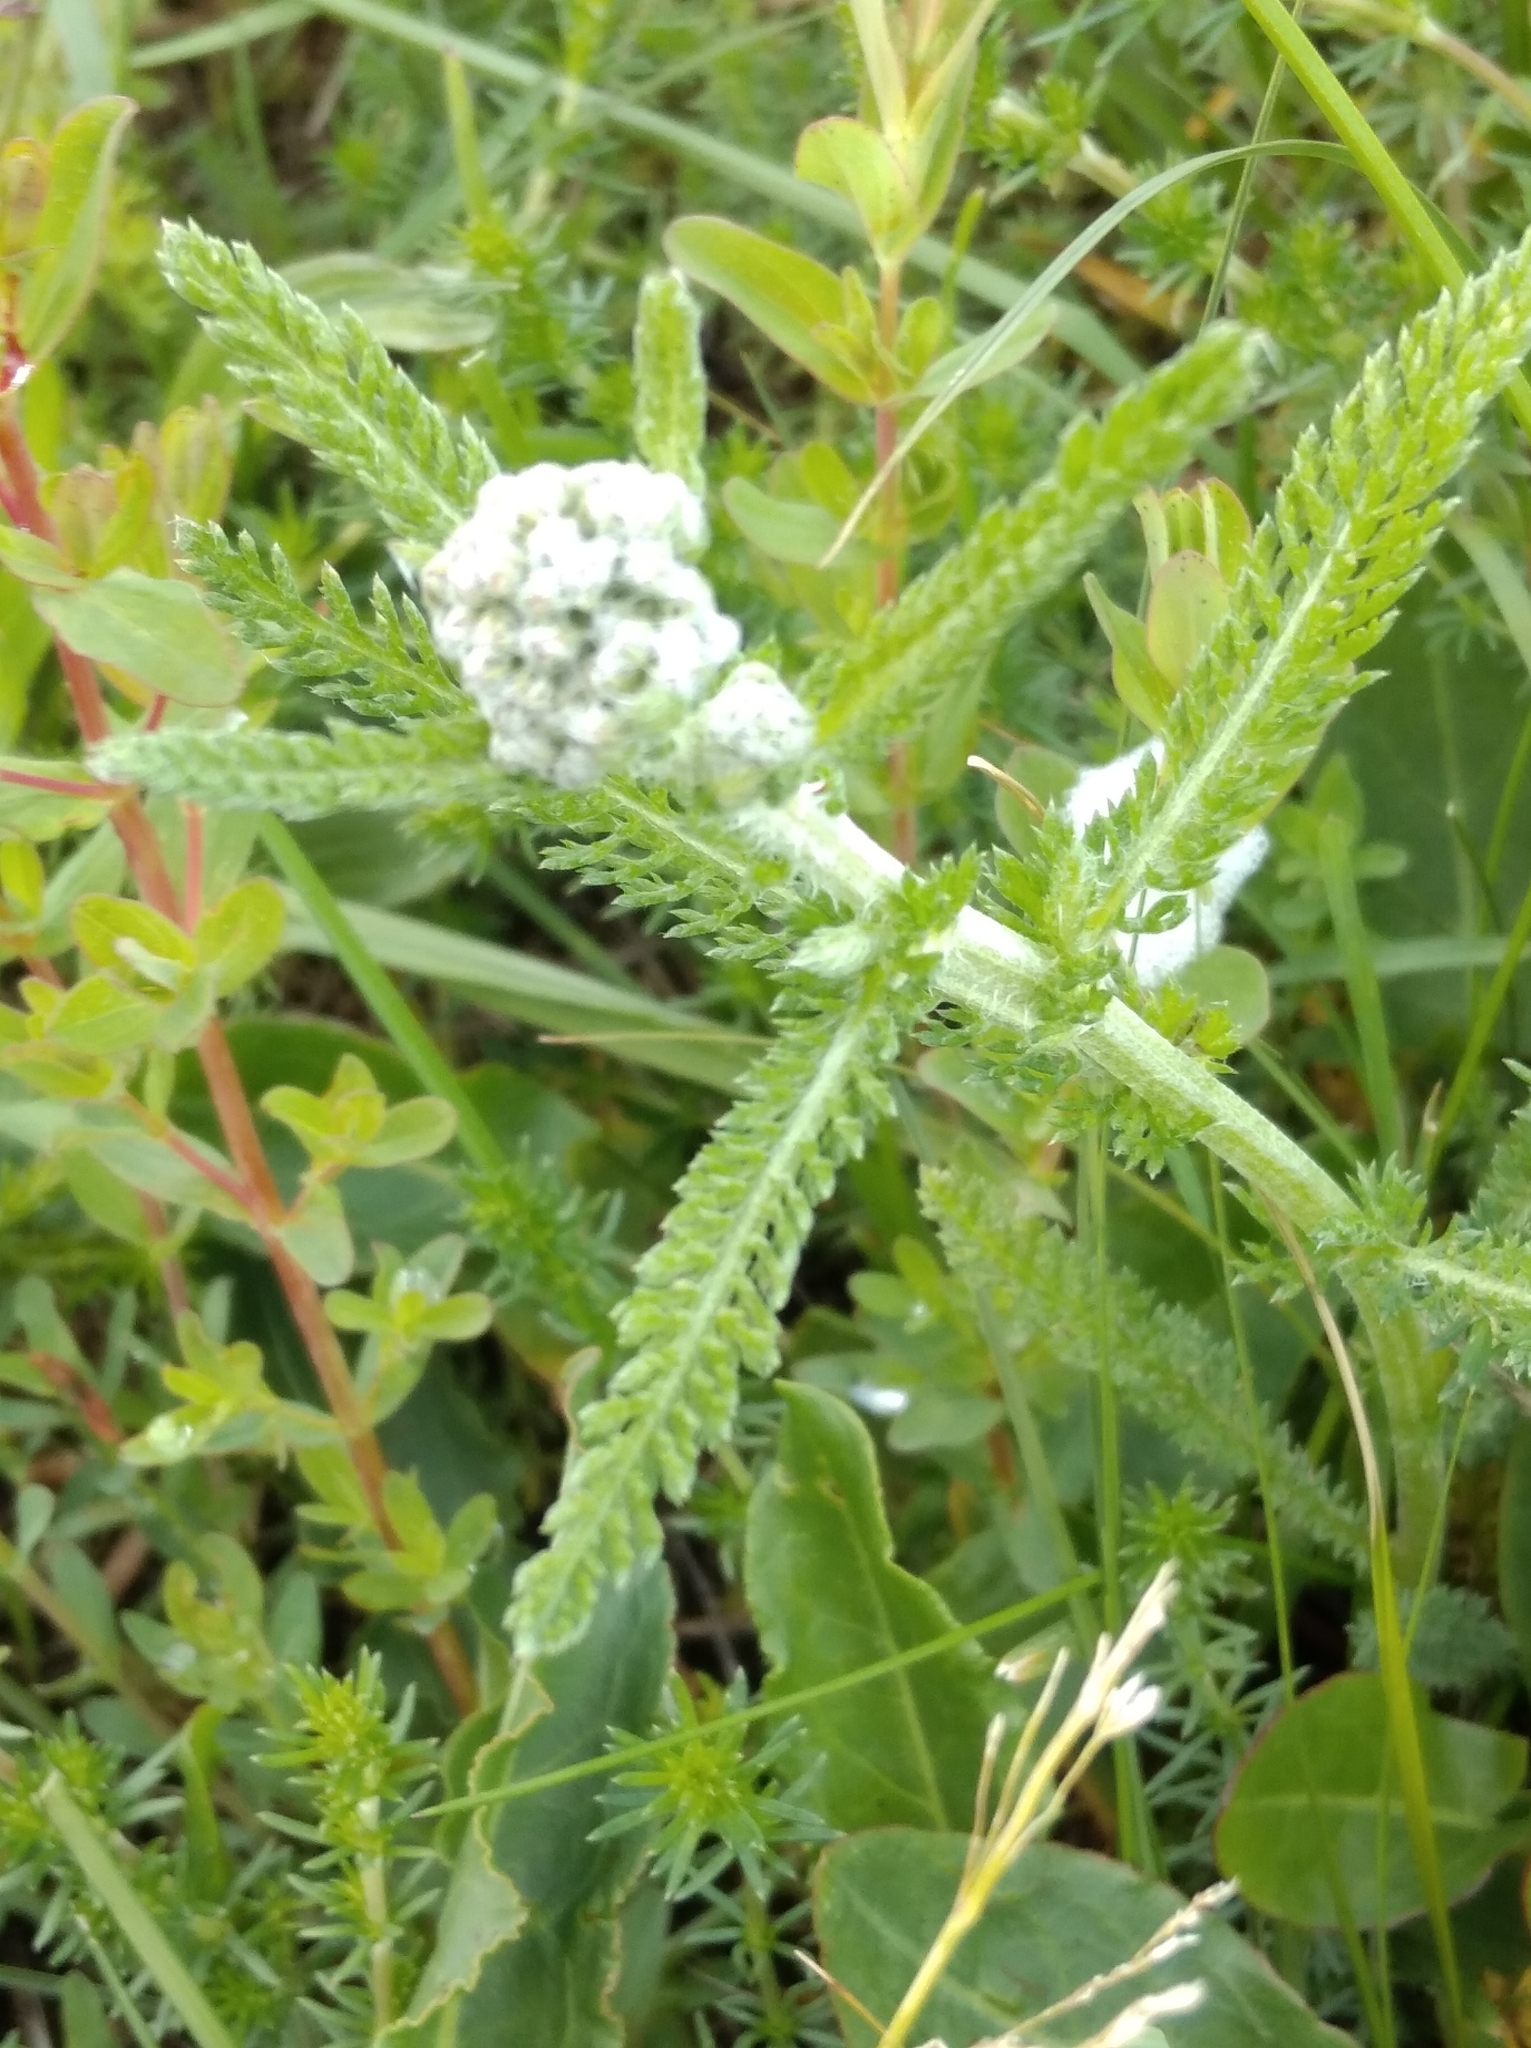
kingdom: Plantae
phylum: Tracheophyta
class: Magnoliopsida
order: Asterales
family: Asteraceae
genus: Achillea
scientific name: Achillea millefolium
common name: Yarrow
